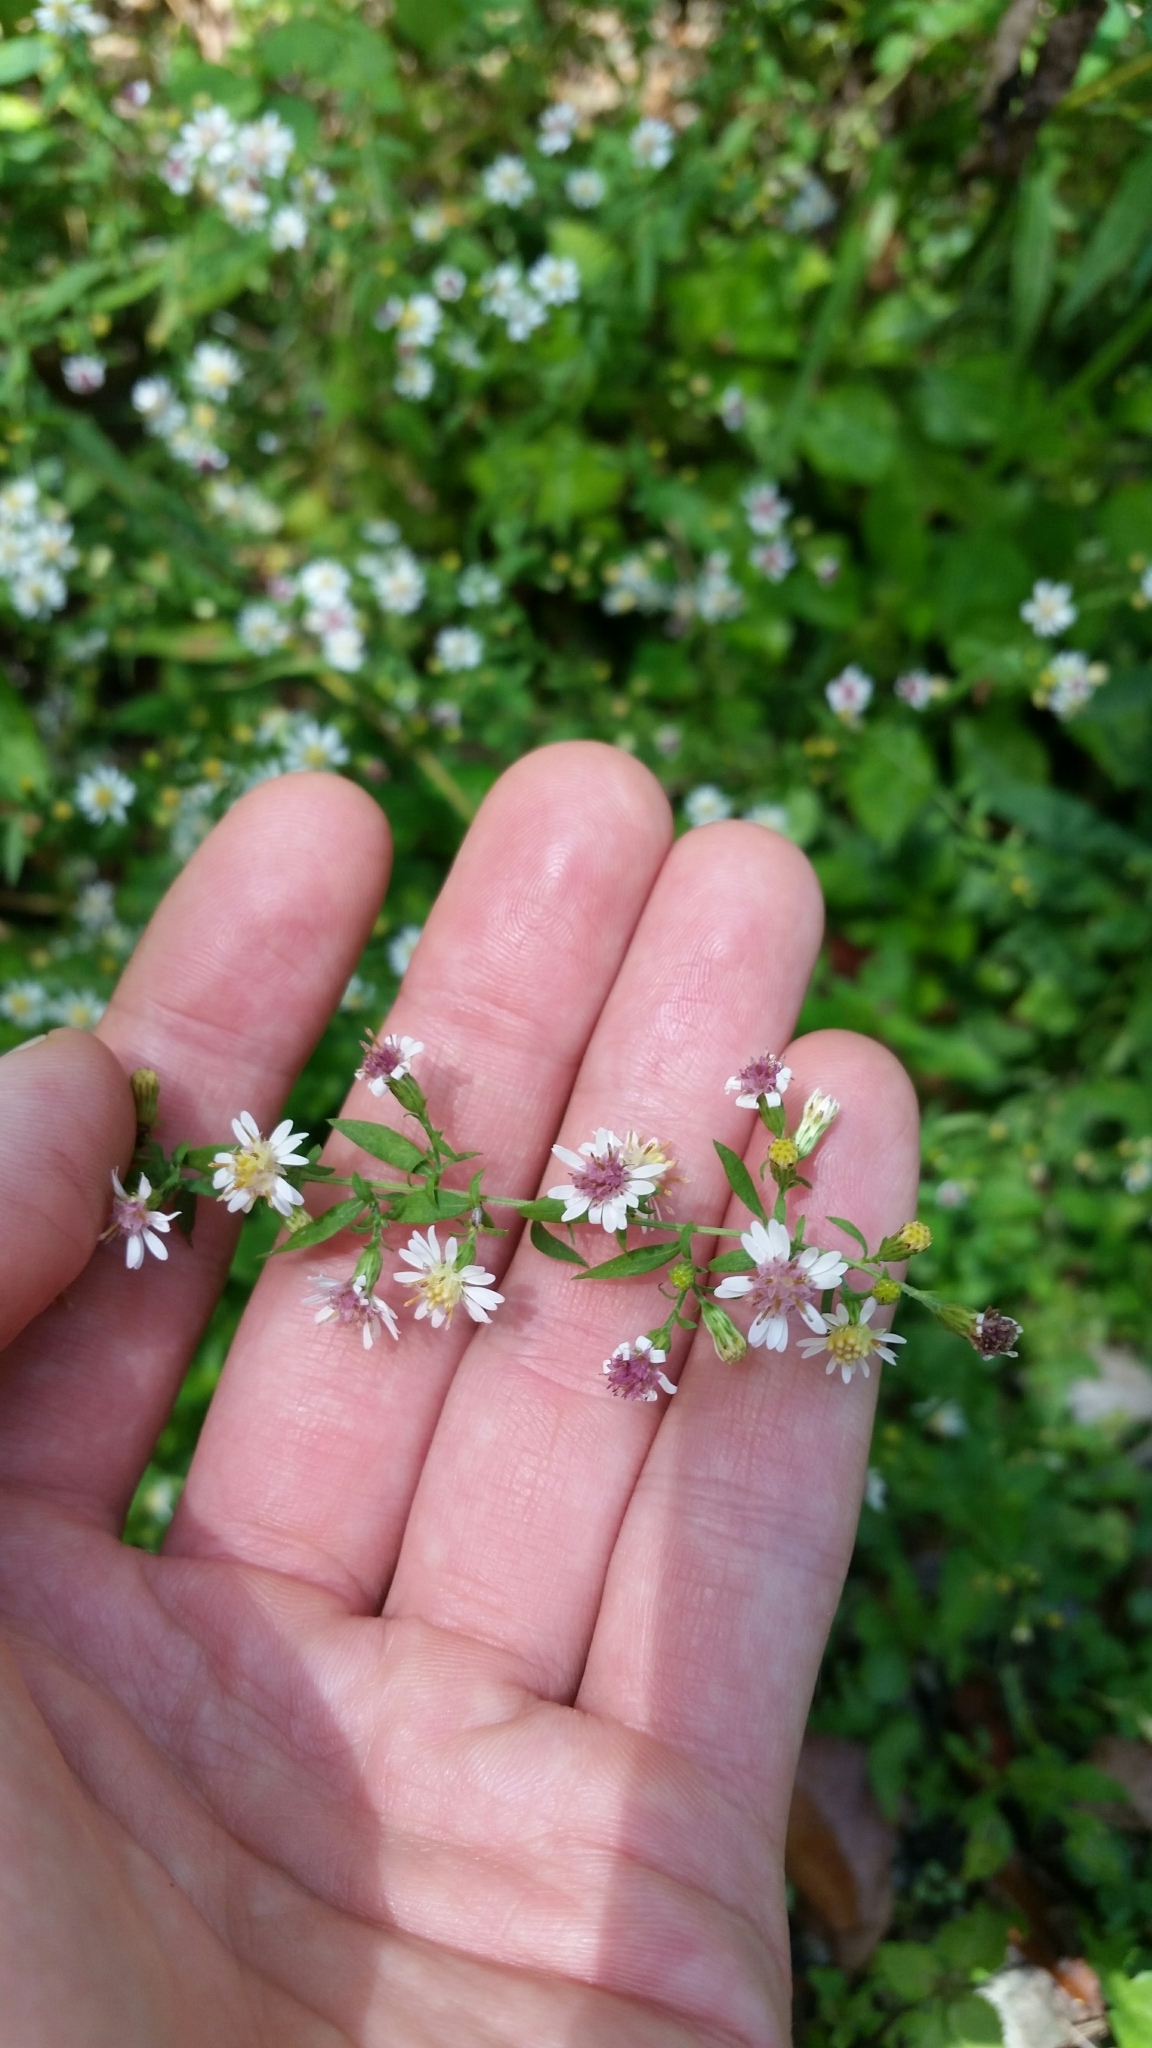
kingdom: Plantae
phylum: Tracheophyta
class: Magnoliopsida
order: Asterales
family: Asteraceae
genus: Symphyotrichum
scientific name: Symphyotrichum lateriflorum
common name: Calico aster
